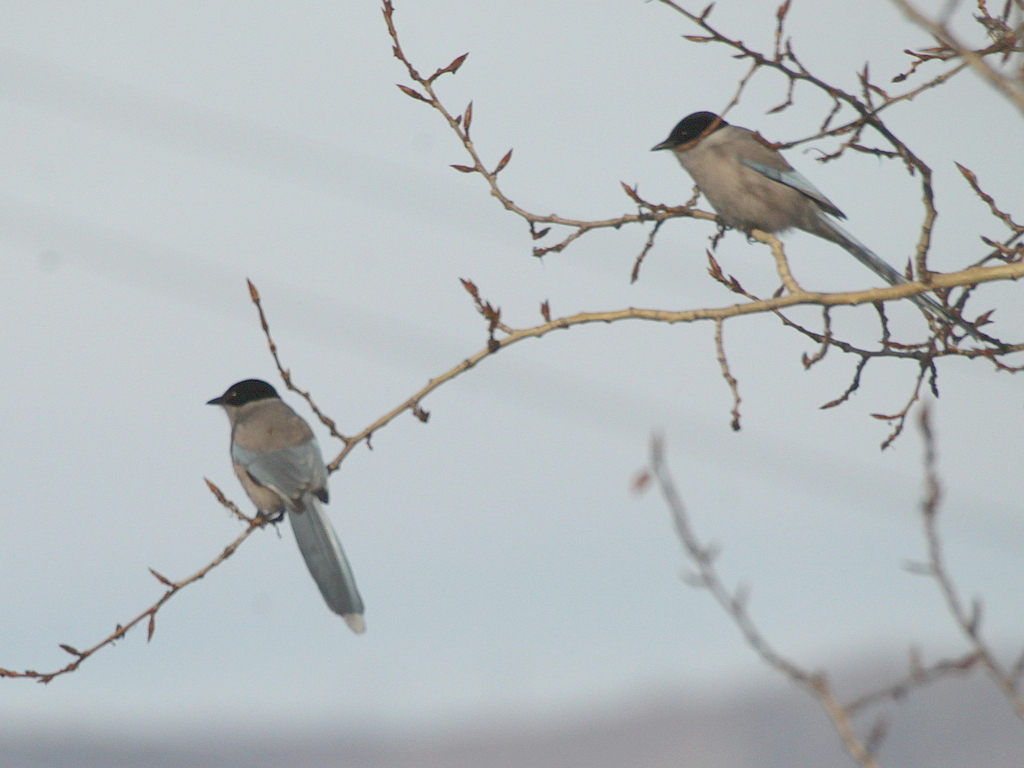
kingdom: Animalia
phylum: Chordata
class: Aves
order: Passeriformes
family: Corvidae
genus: Cyanopica
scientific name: Cyanopica cyanus
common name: Azure-winged magpie
